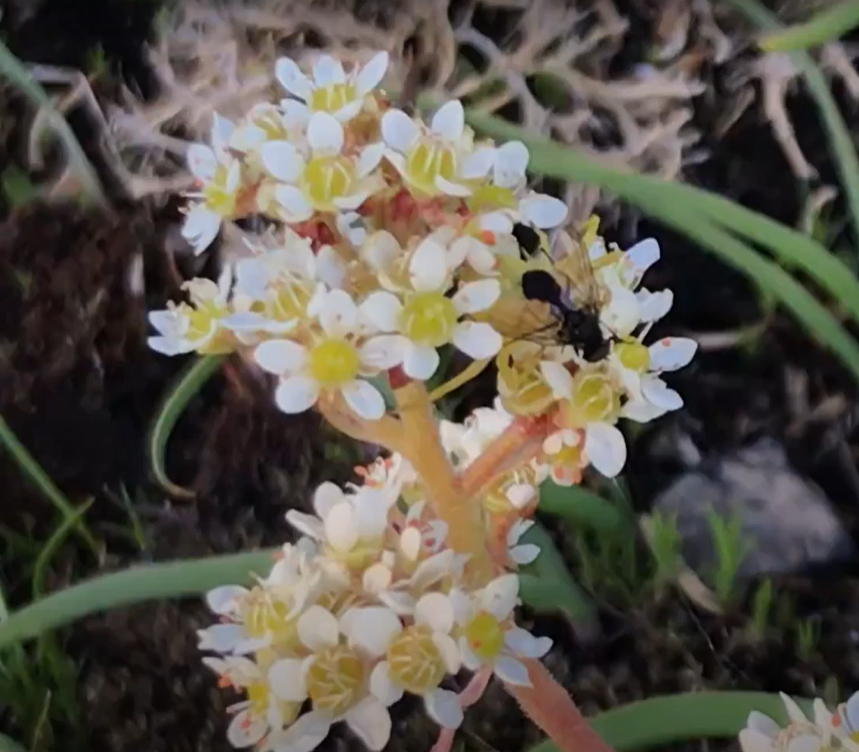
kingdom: Plantae
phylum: Tracheophyta
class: Magnoliopsida
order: Saxifragales
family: Saxifragaceae
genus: Micranthes
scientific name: Micranthes hitchcockiana
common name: Hitchcock's saxifrage
